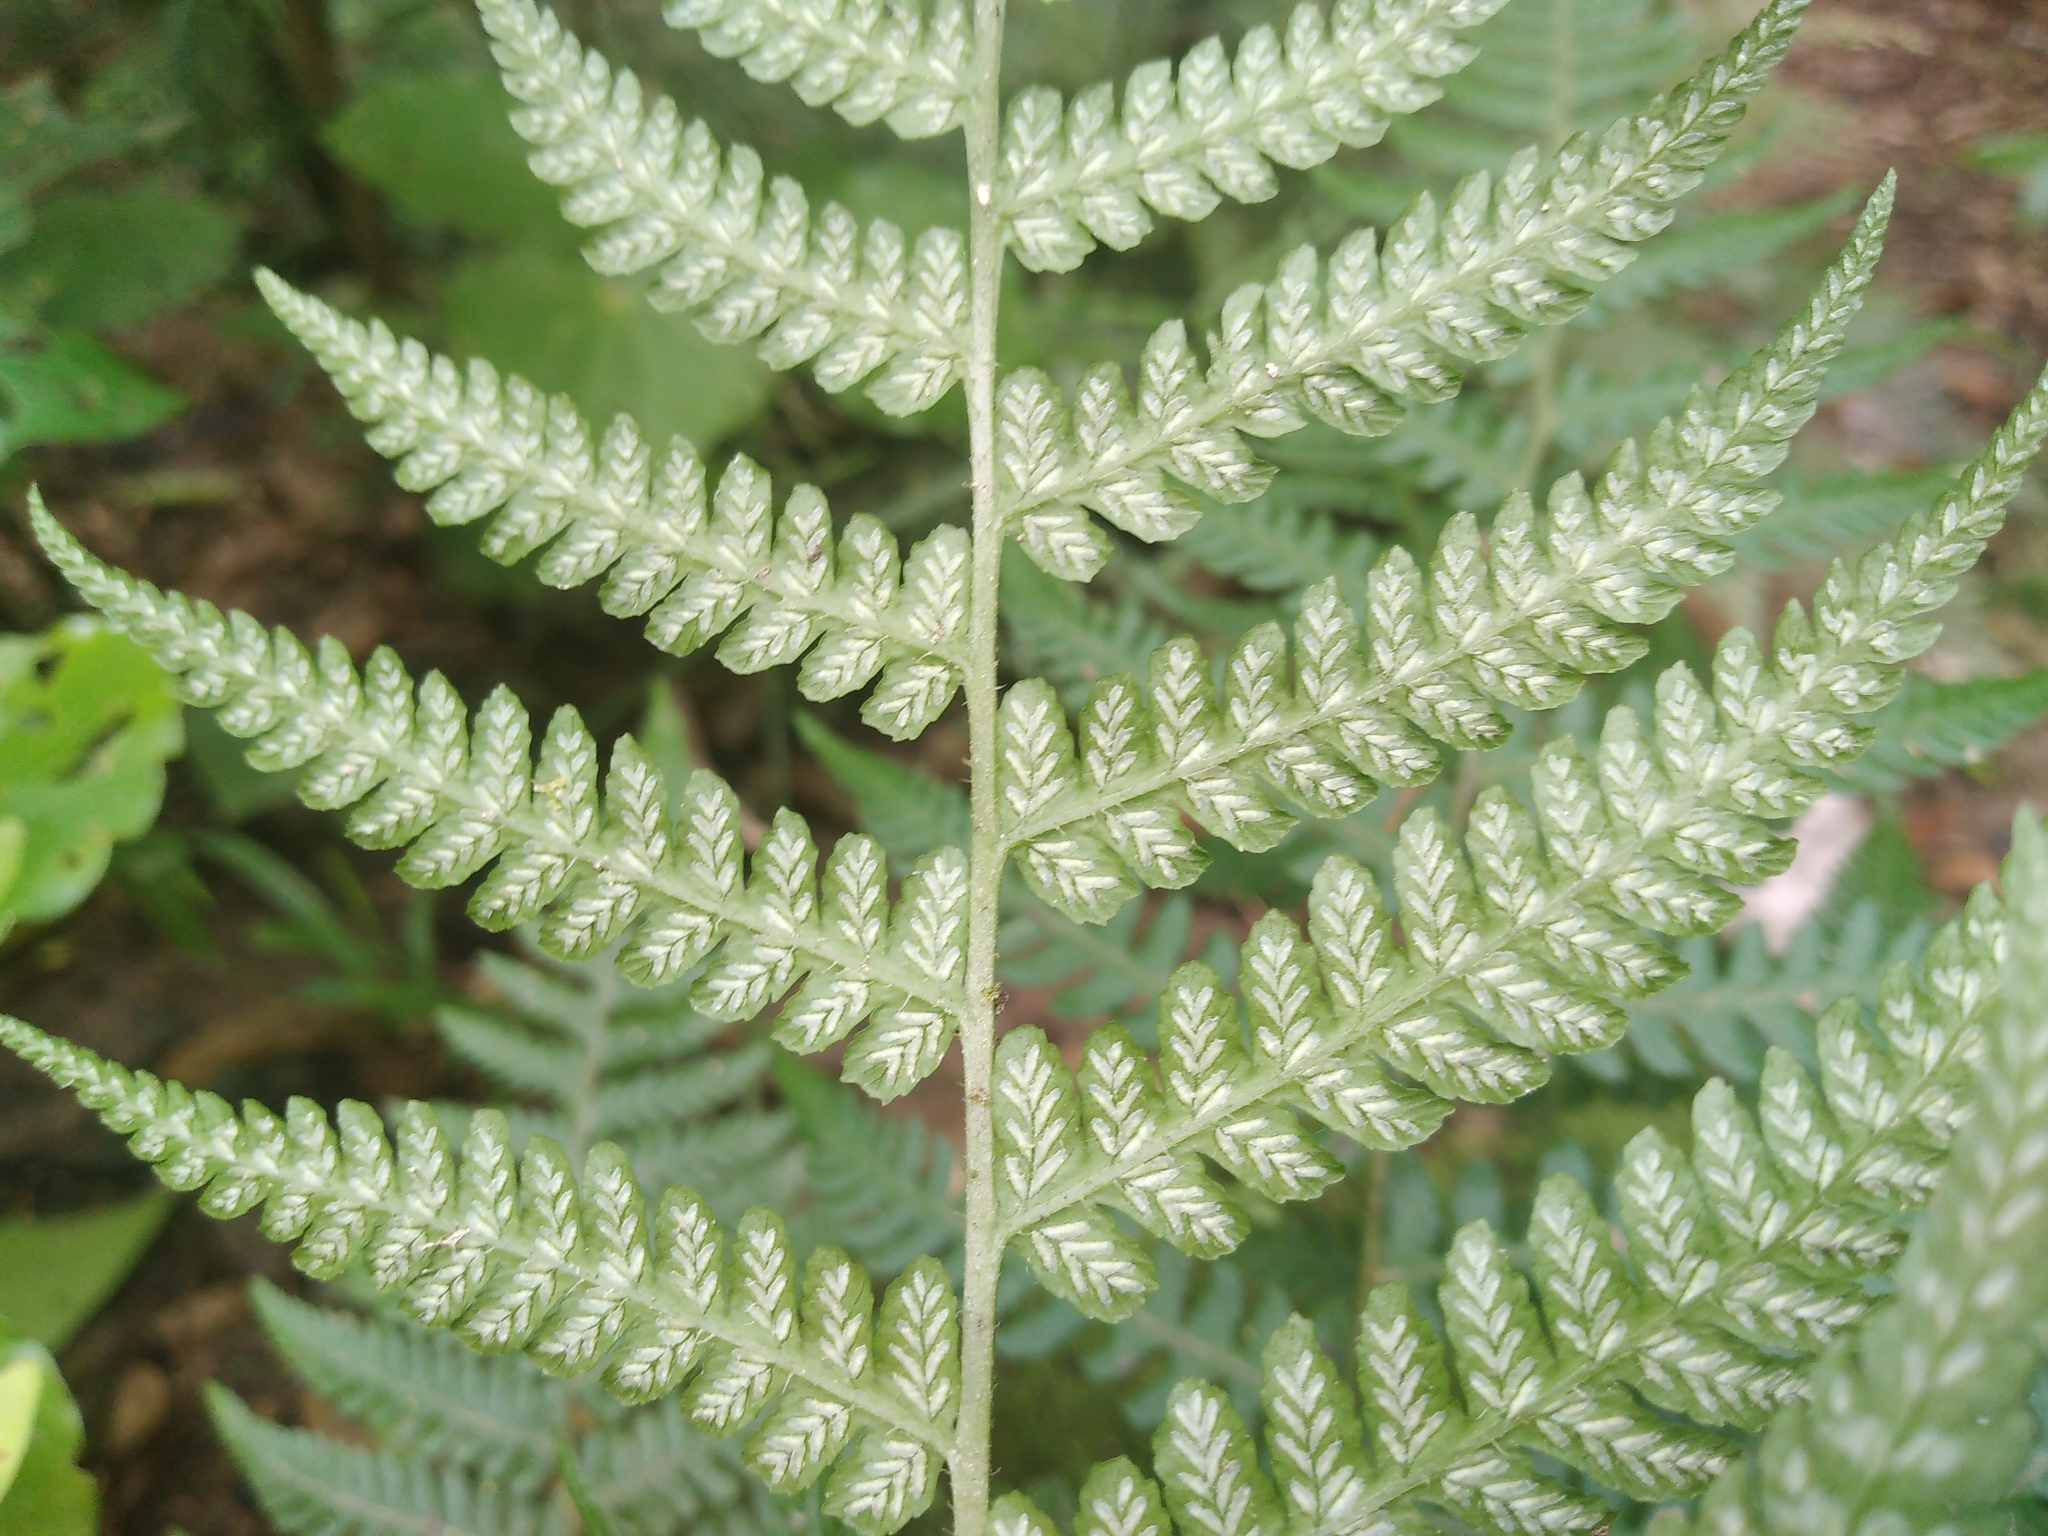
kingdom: Plantae
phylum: Tracheophyta
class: Polypodiopsida
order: Polypodiales
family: Athyriaceae
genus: Diplazium
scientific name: Diplazium congruum
